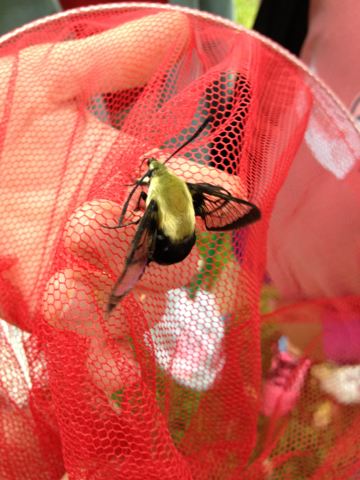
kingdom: Animalia
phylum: Arthropoda
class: Insecta
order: Lepidoptera
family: Sphingidae
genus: Hemaris
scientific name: Hemaris diffinis
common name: Bumblebee moth
